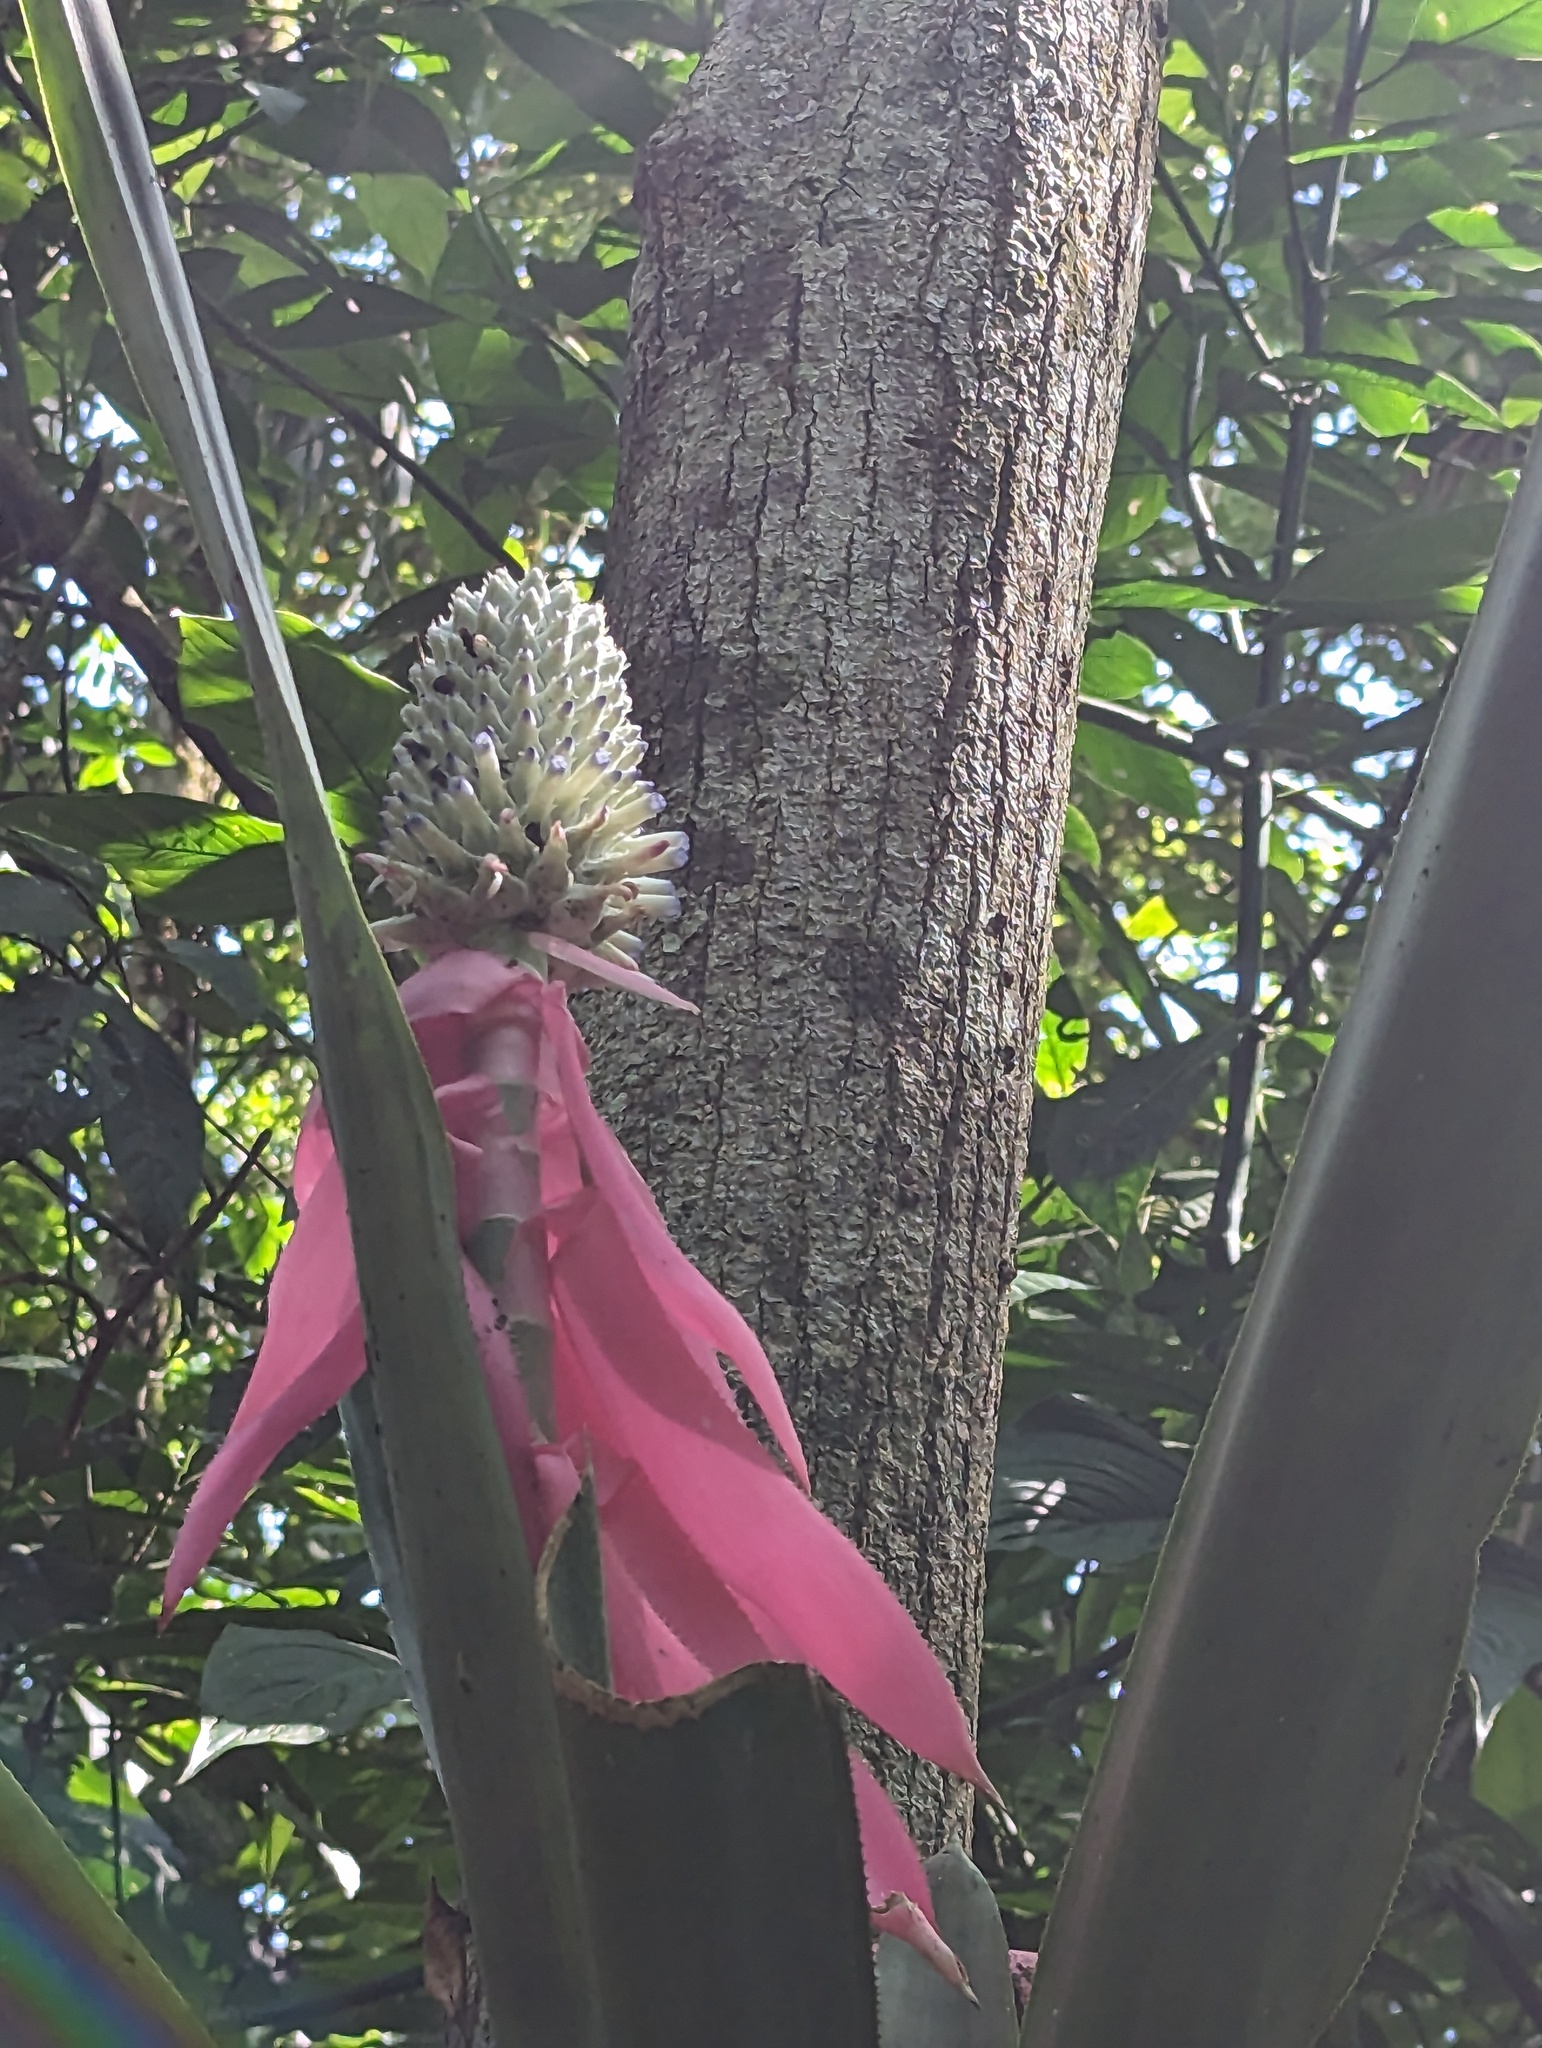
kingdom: Plantae
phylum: Tracheophyta
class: Liliopsida
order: Poales
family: Bromeliaceae
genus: Aechmea
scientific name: Aechmea mariae-reginae
